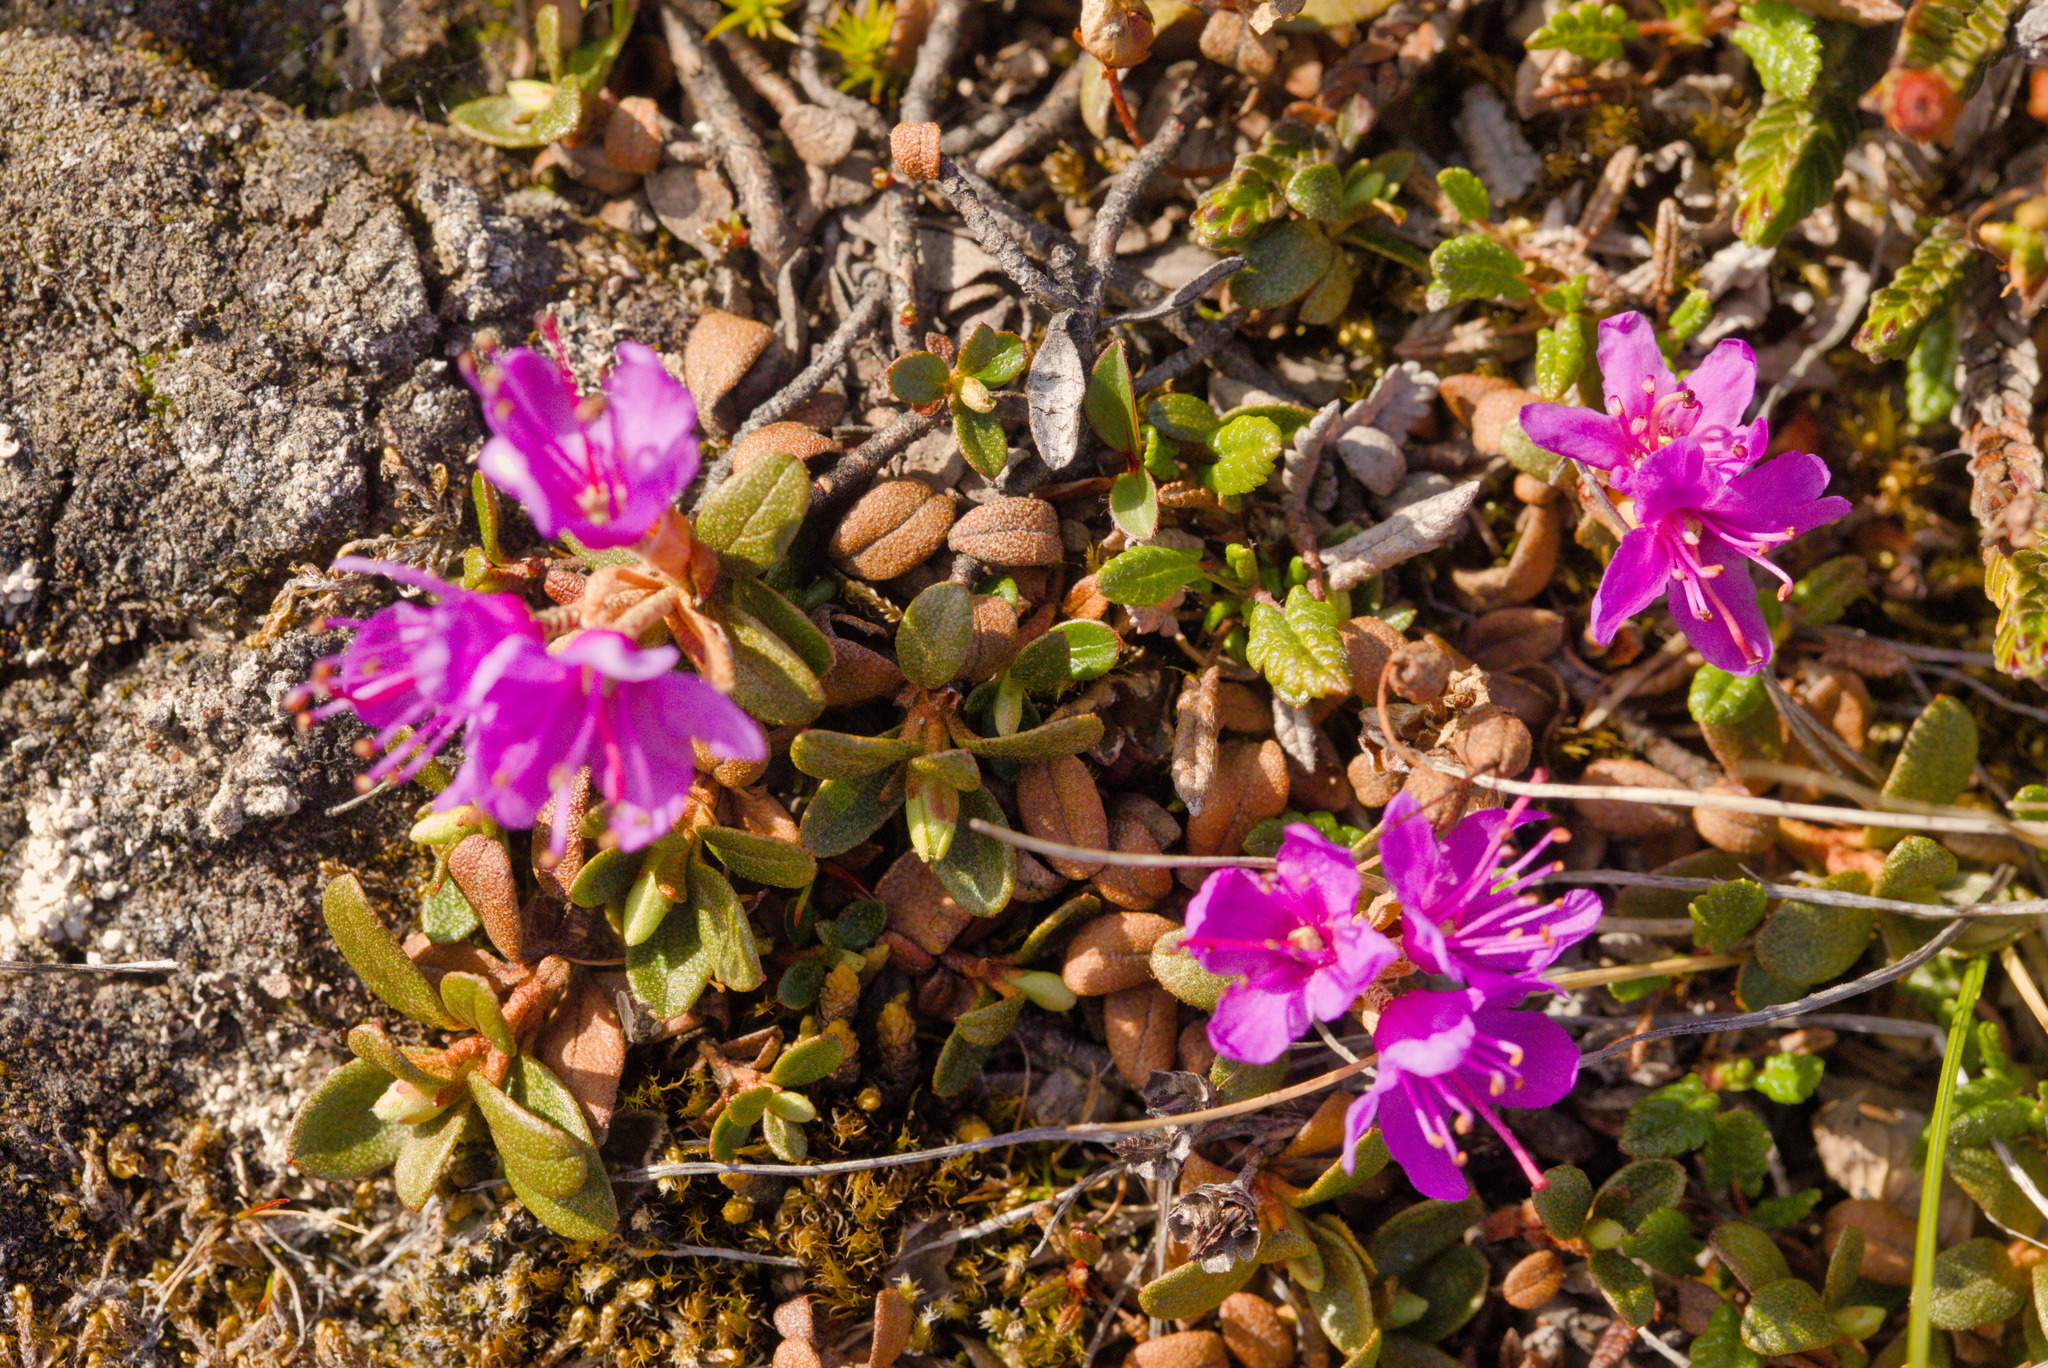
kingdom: Plantae
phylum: Tracheophyta
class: Magnoliopsida
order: Ericales
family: Ericaceae
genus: Rhododendron
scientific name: Rhododendron lapponicum
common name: Lapland rhododendron
